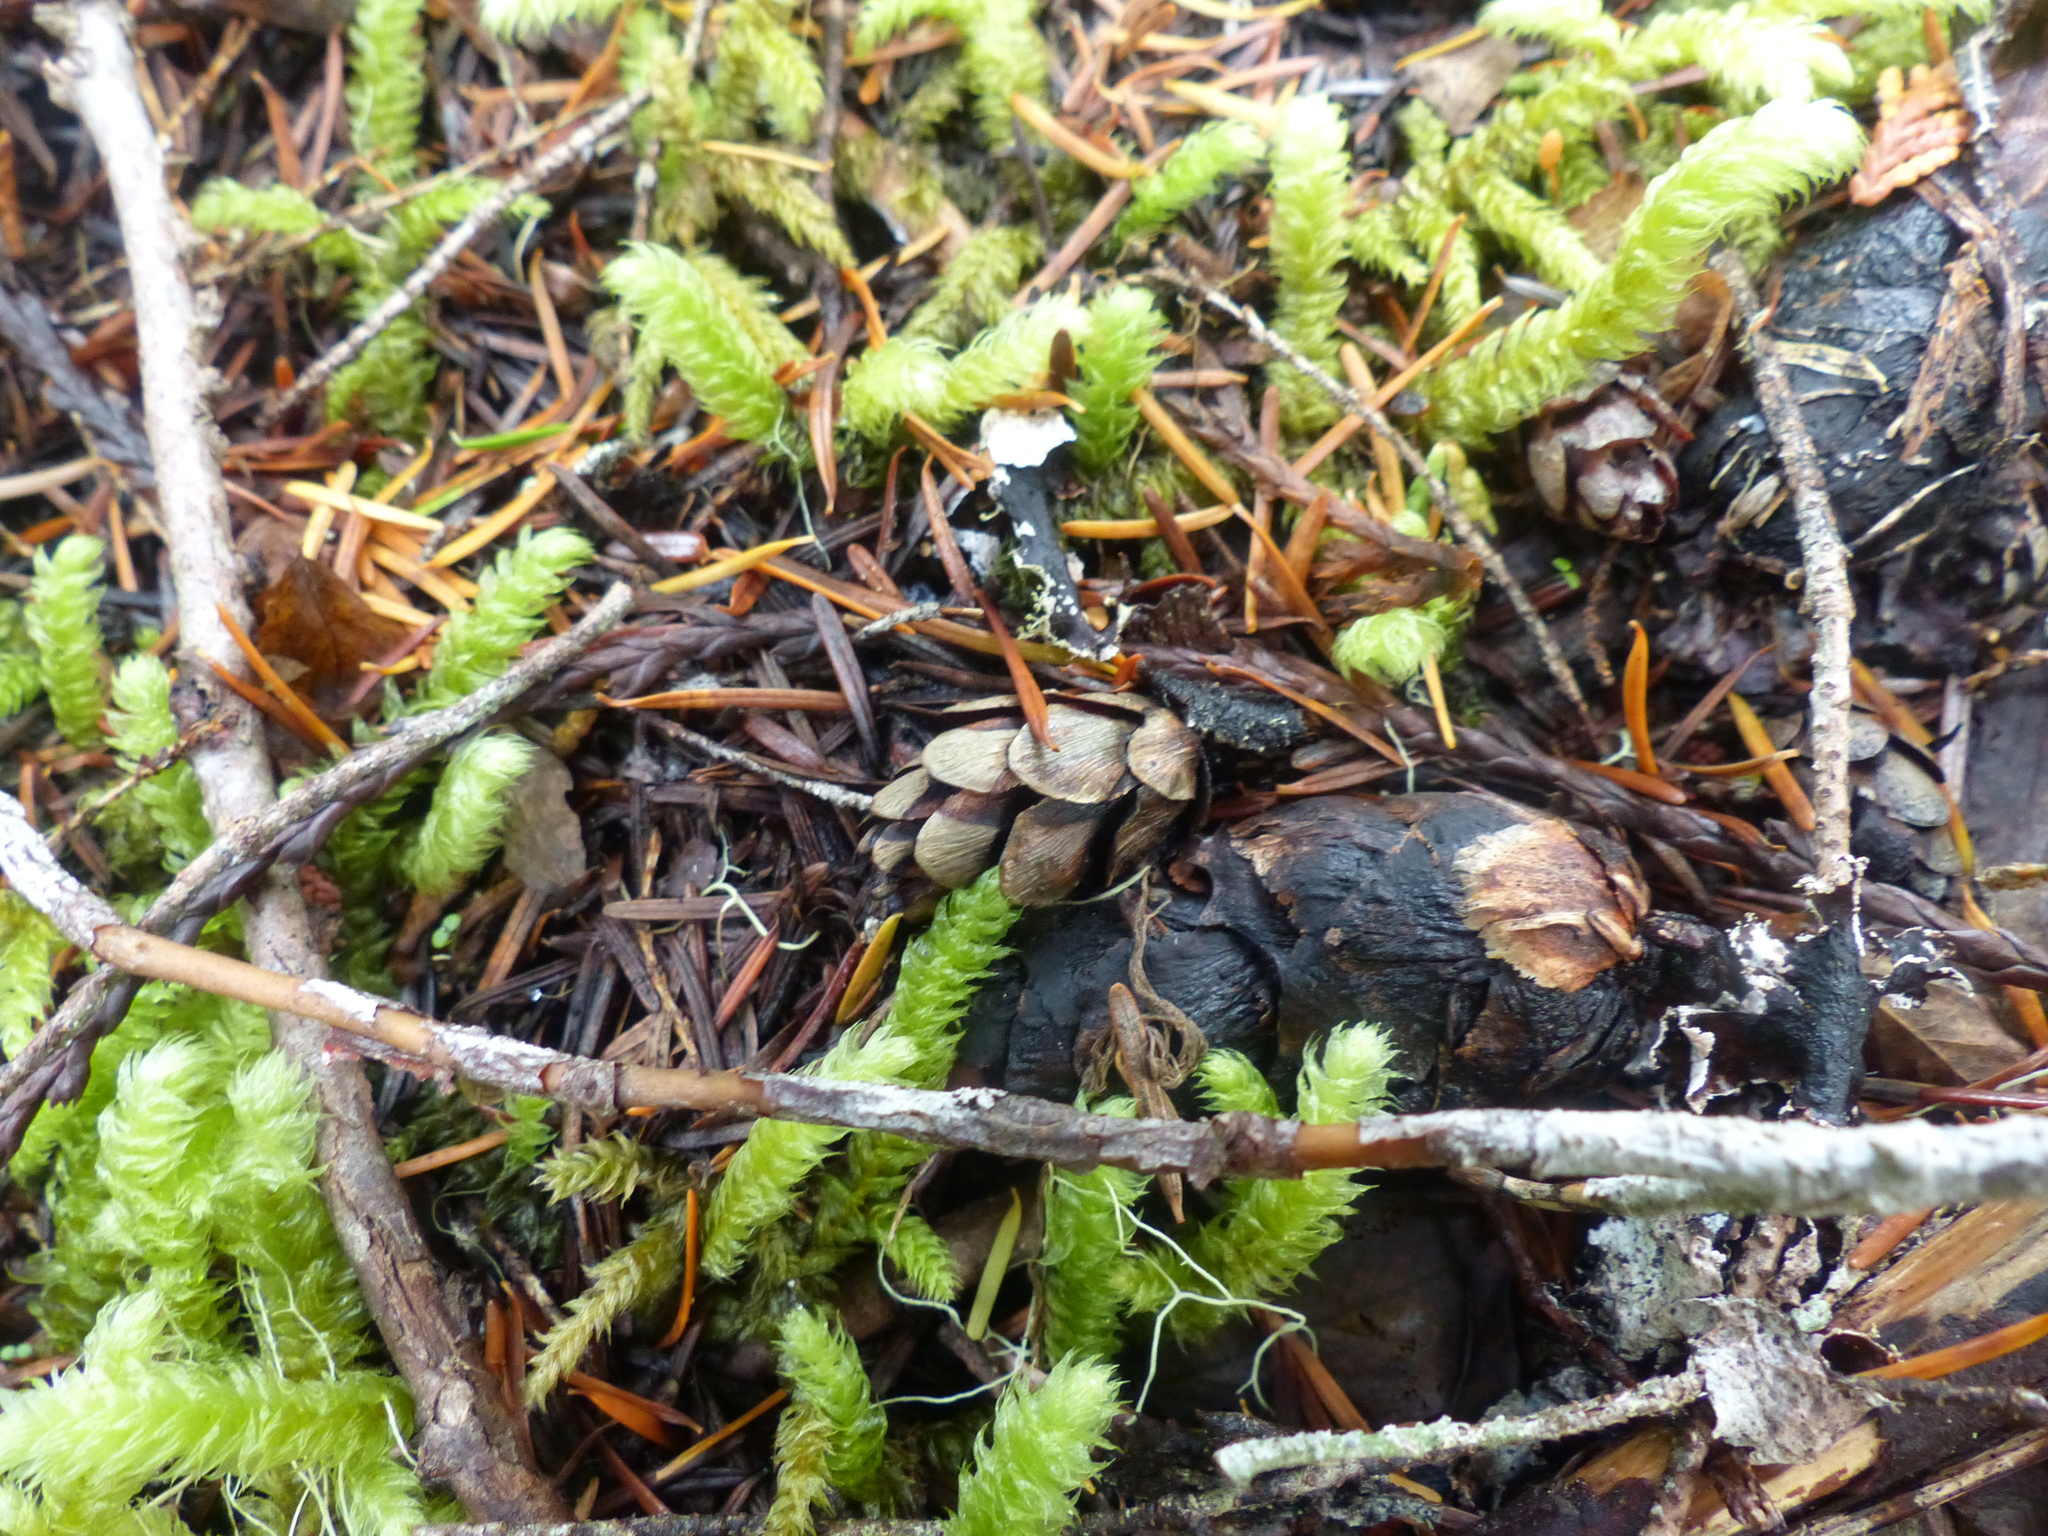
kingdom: Plantae
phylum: Tracheophyta
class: Pinopsida
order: Pinales
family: Pinaceae
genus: Tsuga
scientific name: Tsuga heterophylla
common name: Western hemlock
